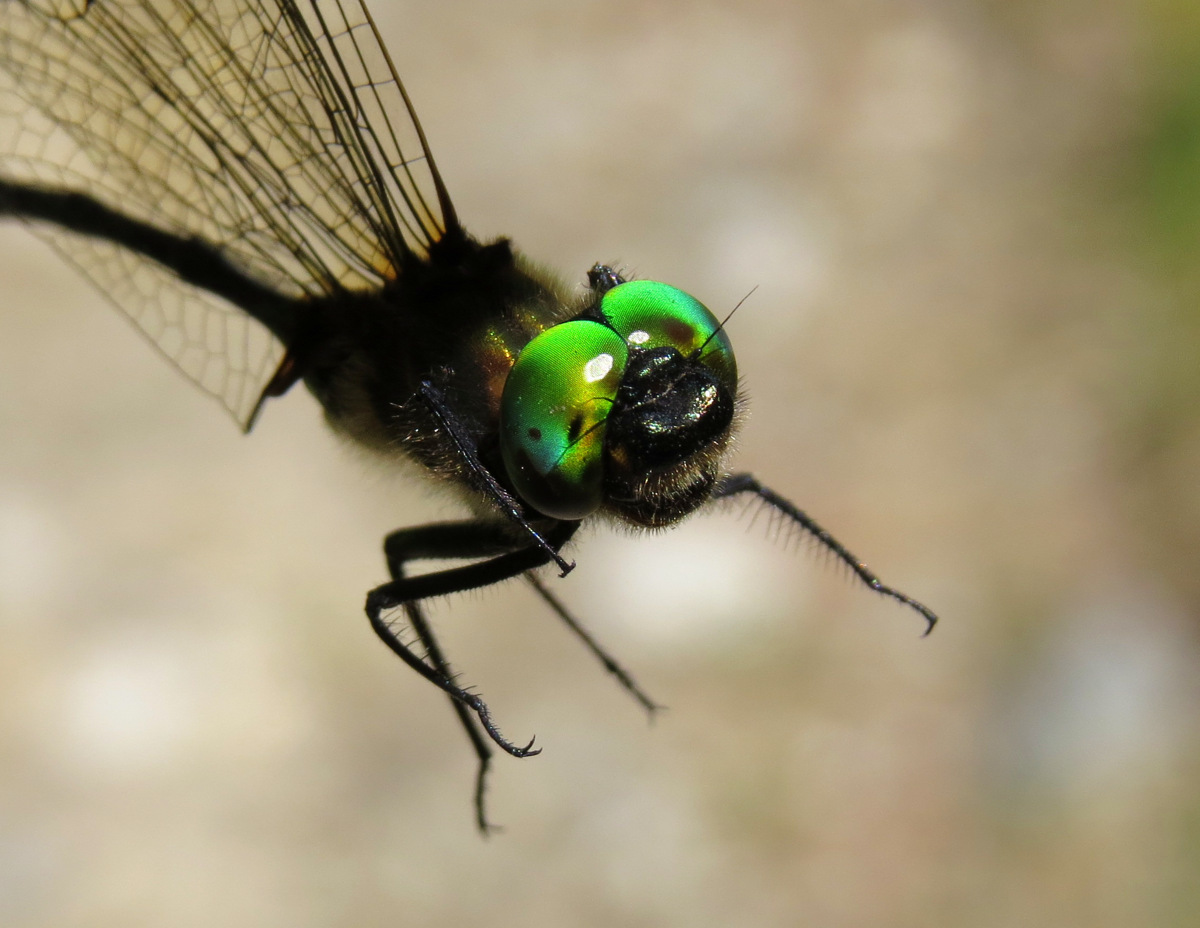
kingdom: Animalia
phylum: Arthropoda
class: Insecta
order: Odonata
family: Corduliidae
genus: Somatochlora
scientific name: Somatochlora franklini
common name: Delicate emerald
